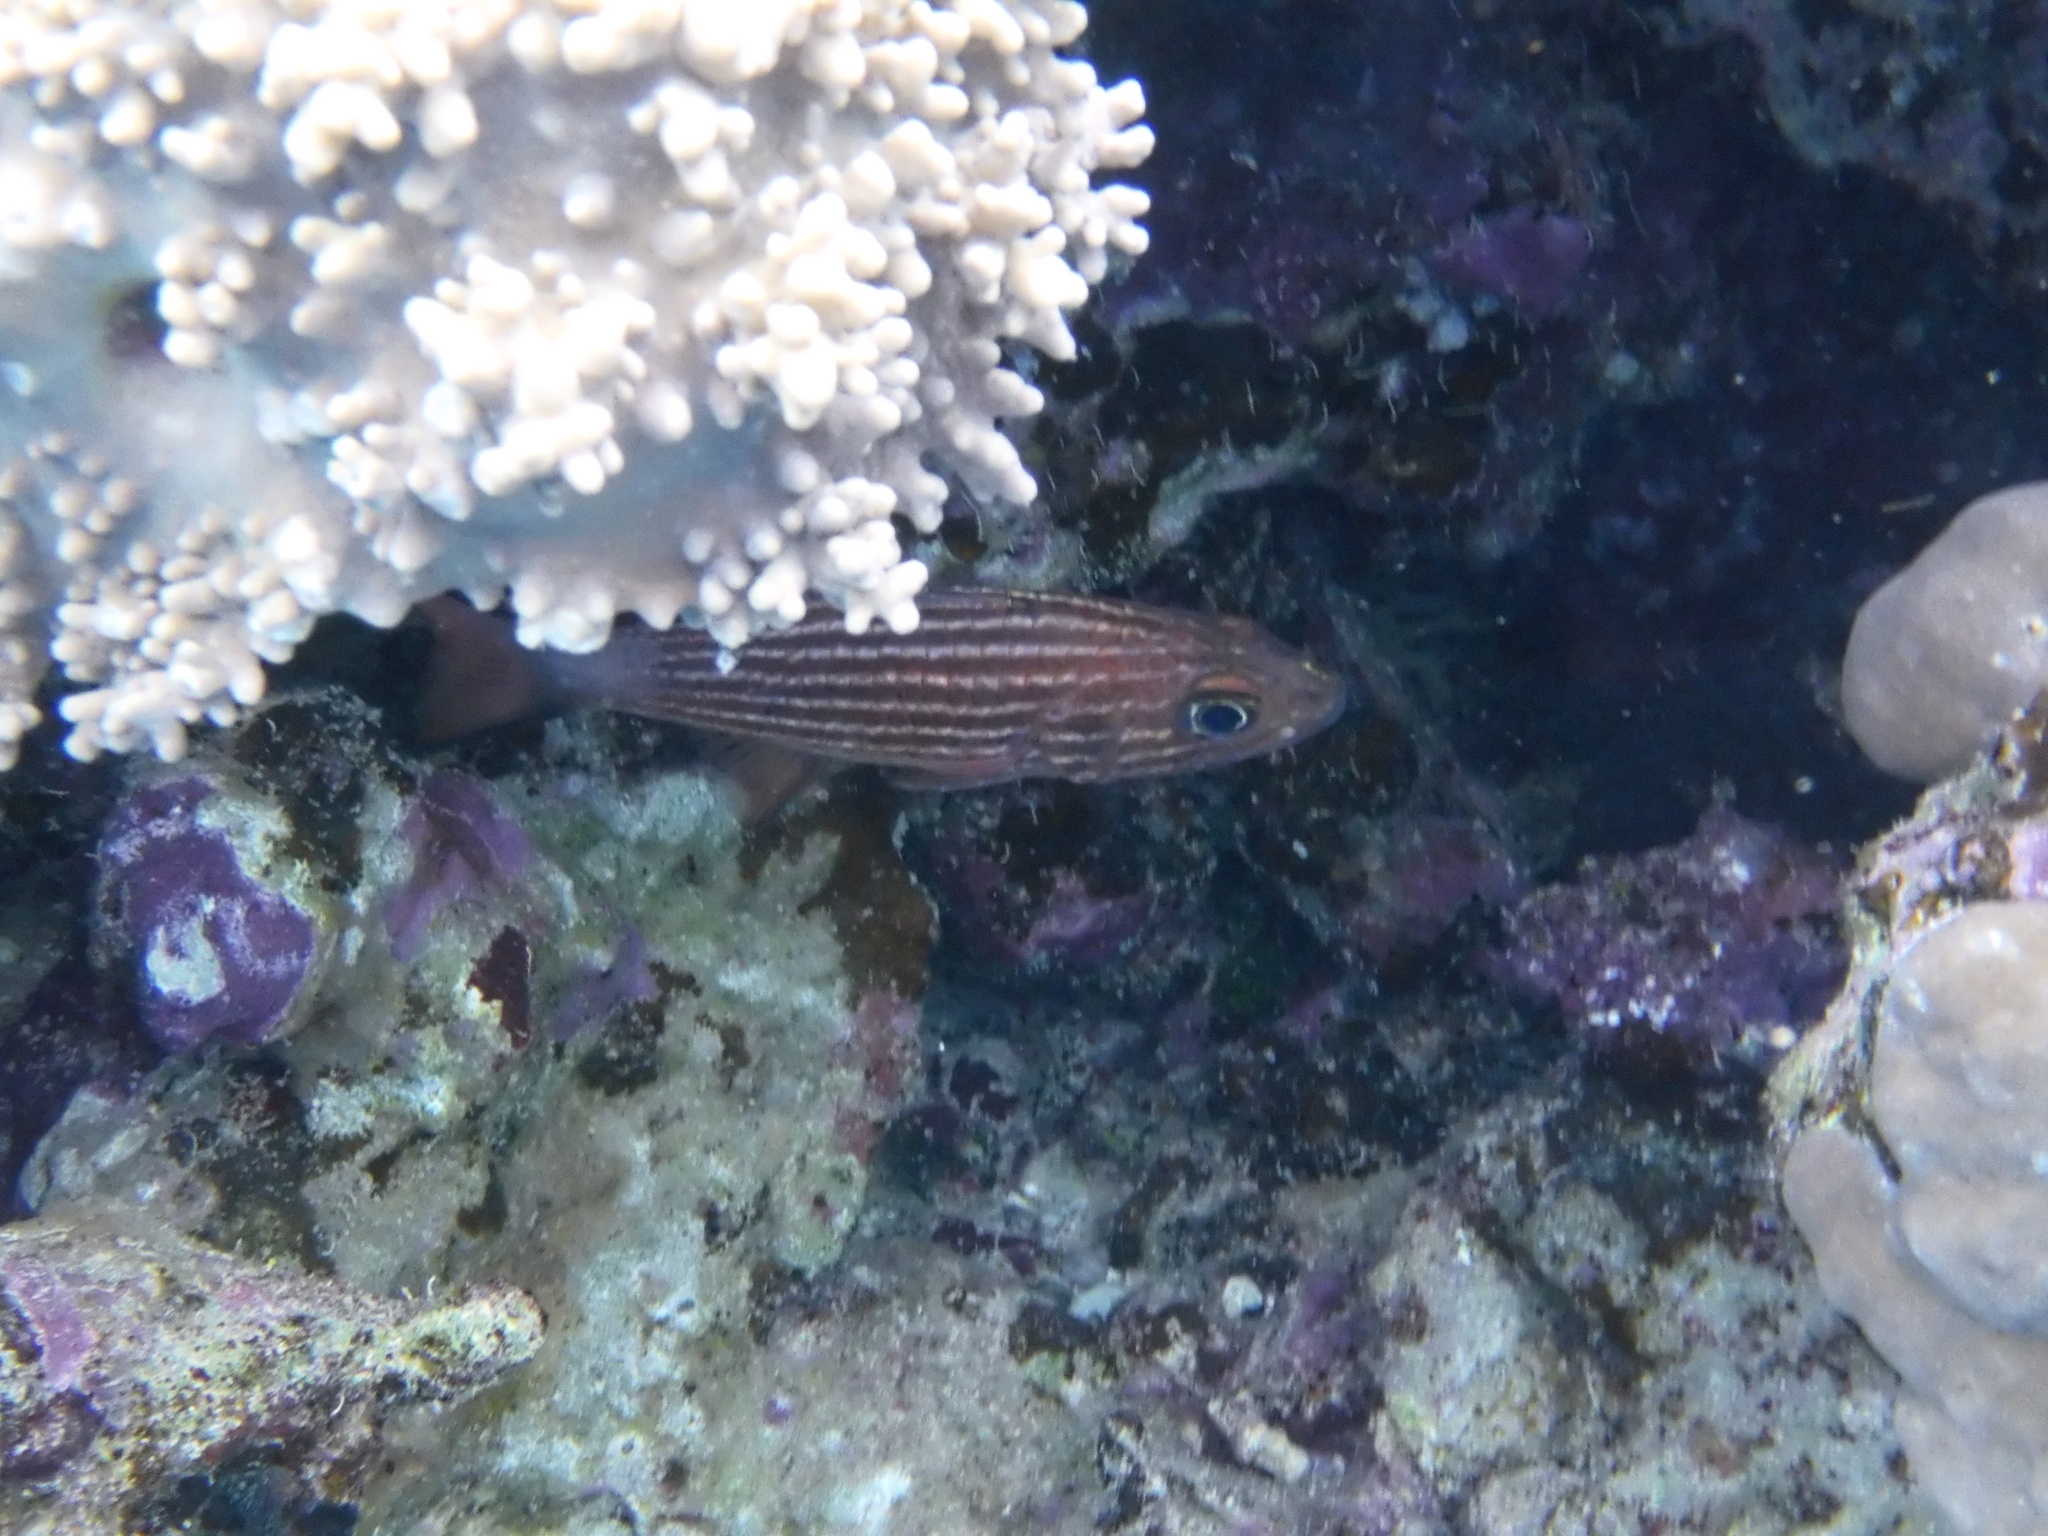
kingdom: Animalia
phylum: Chordata
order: Perciformes
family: Apogonidae
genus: Cheilodipterus
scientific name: Cheilodipterus macrodon
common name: Eight-lined cardinalfish
